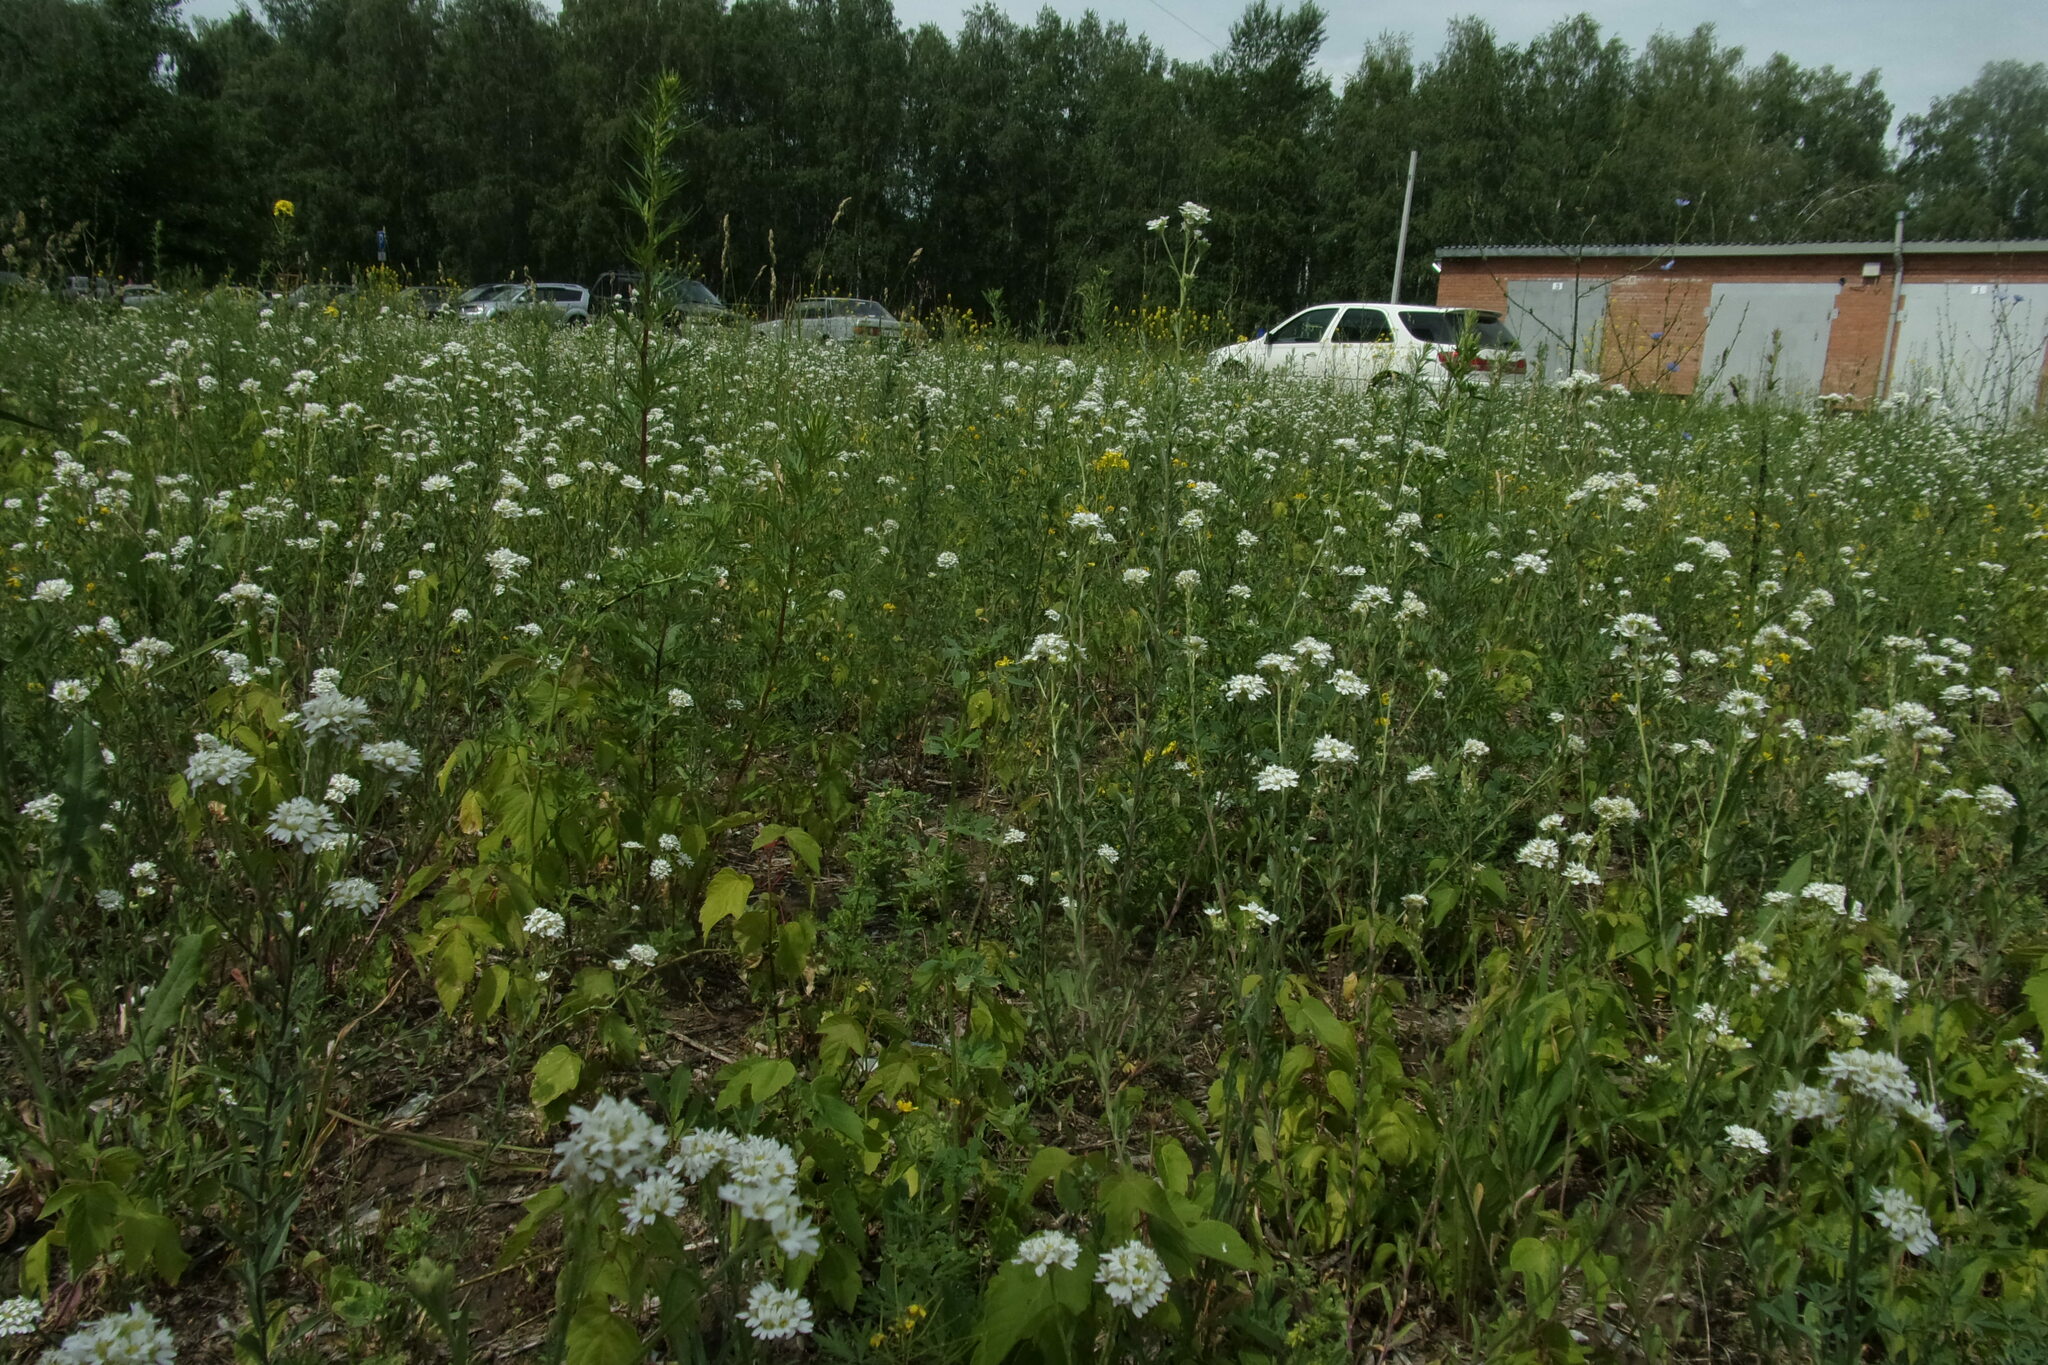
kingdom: Plantae
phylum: Tracheophyta
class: Liliopsida
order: Asparagales
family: Orchidaceae
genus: Dactylorhiza
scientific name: Dactylorhiza incarnata
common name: Early marsh-orchid
